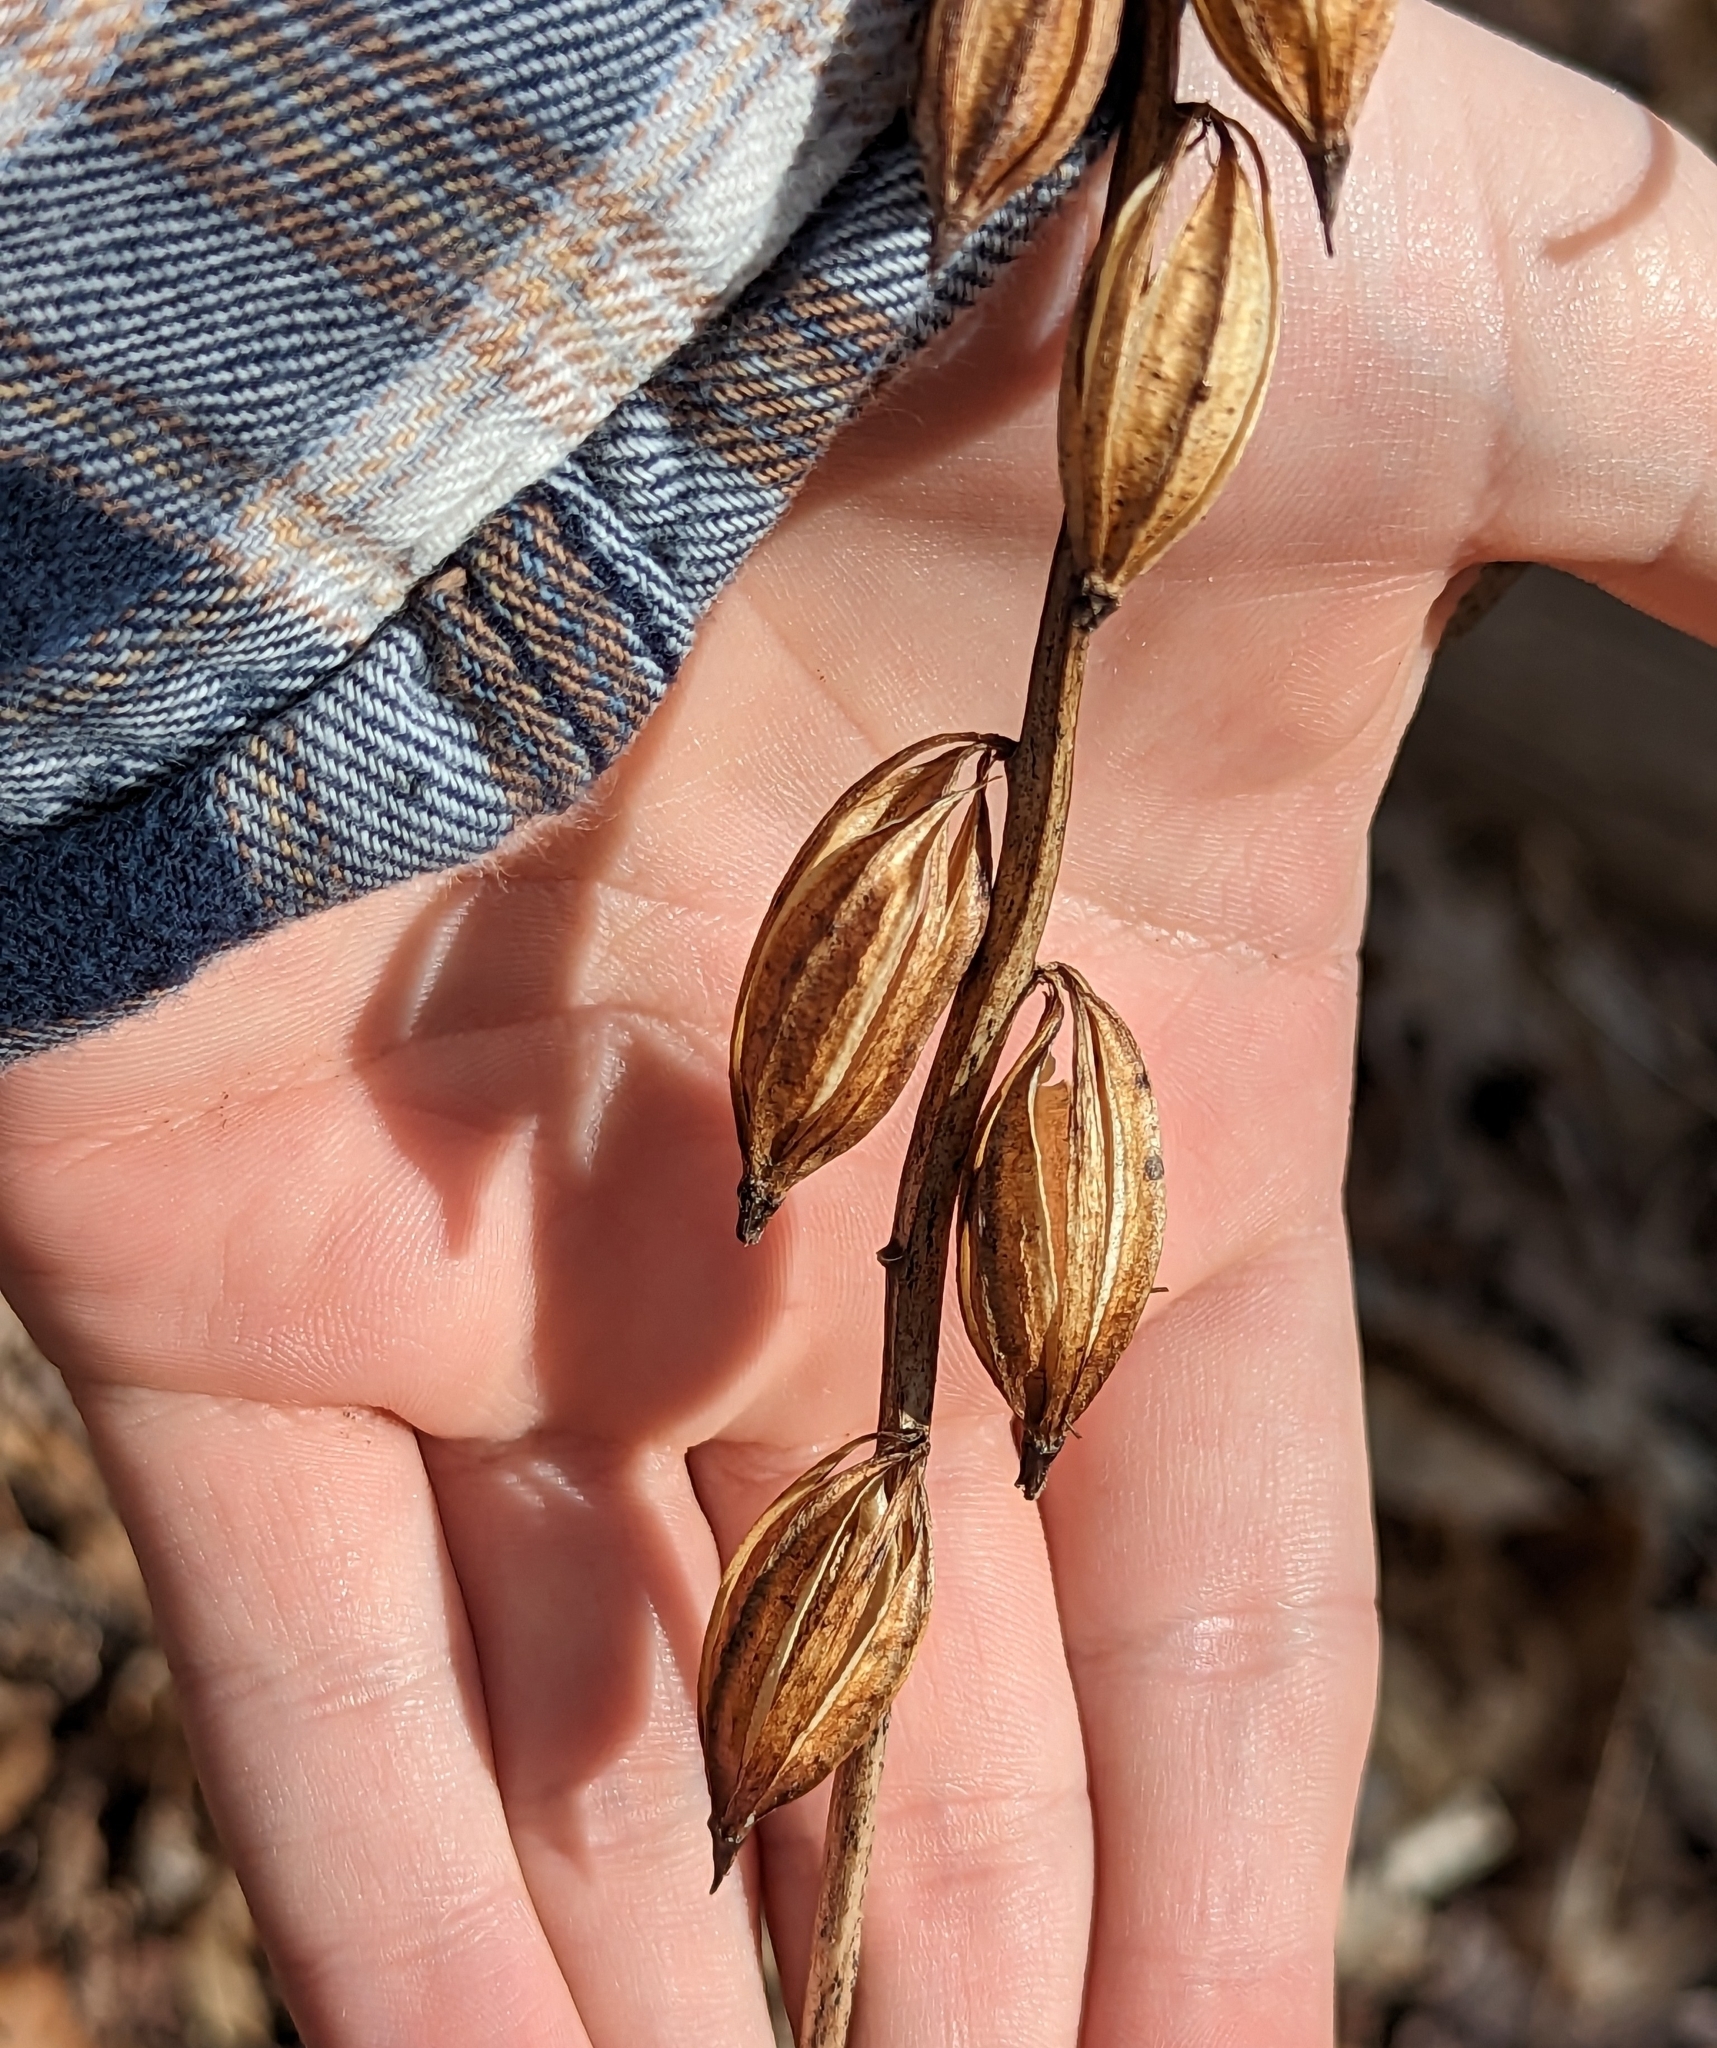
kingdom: Plantae
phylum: Tracheophyta
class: Liliopsida
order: Asparagales
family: Orchidaceae
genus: Aplectrum
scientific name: Aplectrum hyemale
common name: Adam-and-eve
